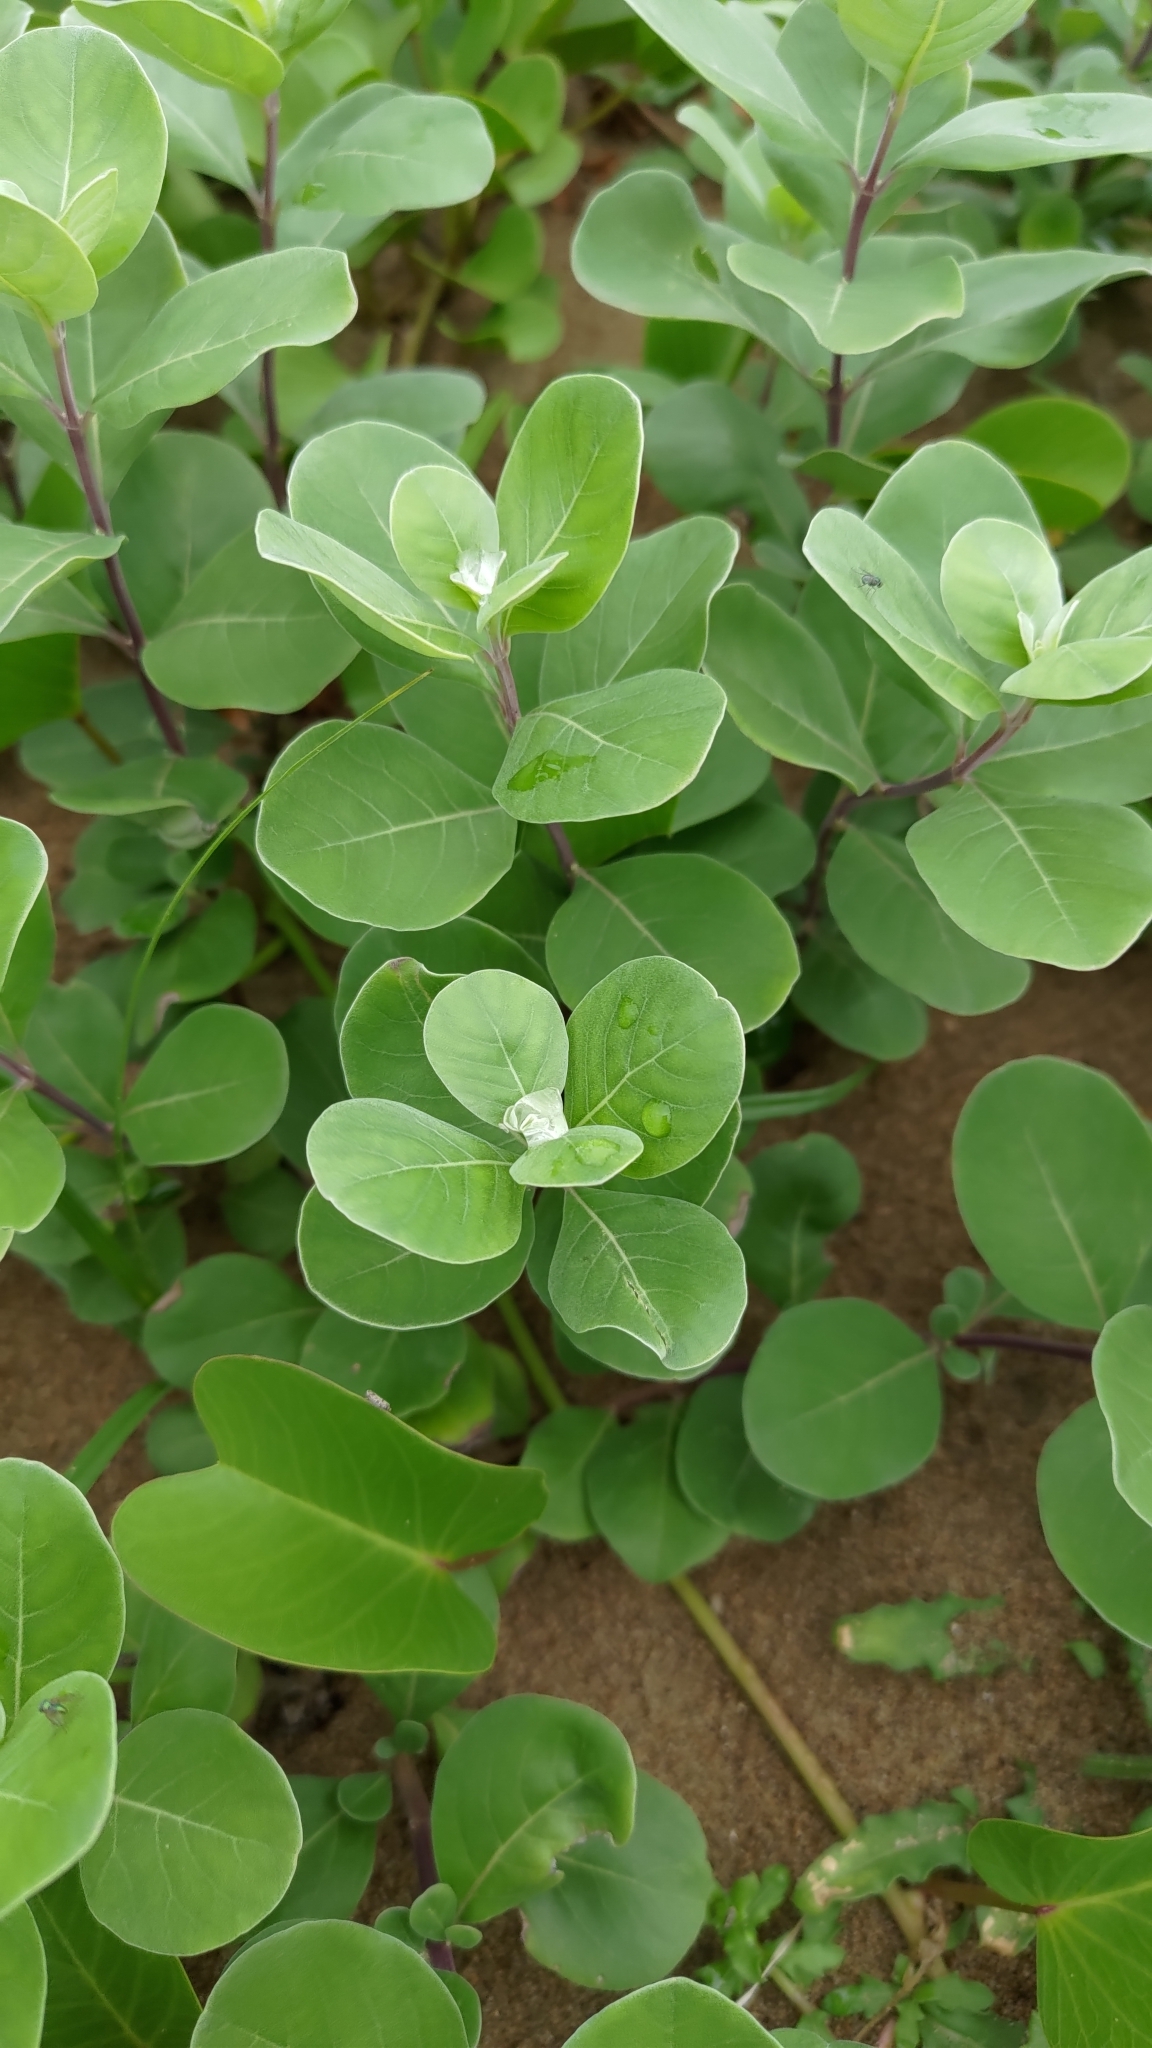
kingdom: Plantae
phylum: Tracheophyta
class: Magnoliopsida
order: Lamiales
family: Lamiaceae
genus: Vitex
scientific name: Vitex rotundifolia
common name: Beach vitex
